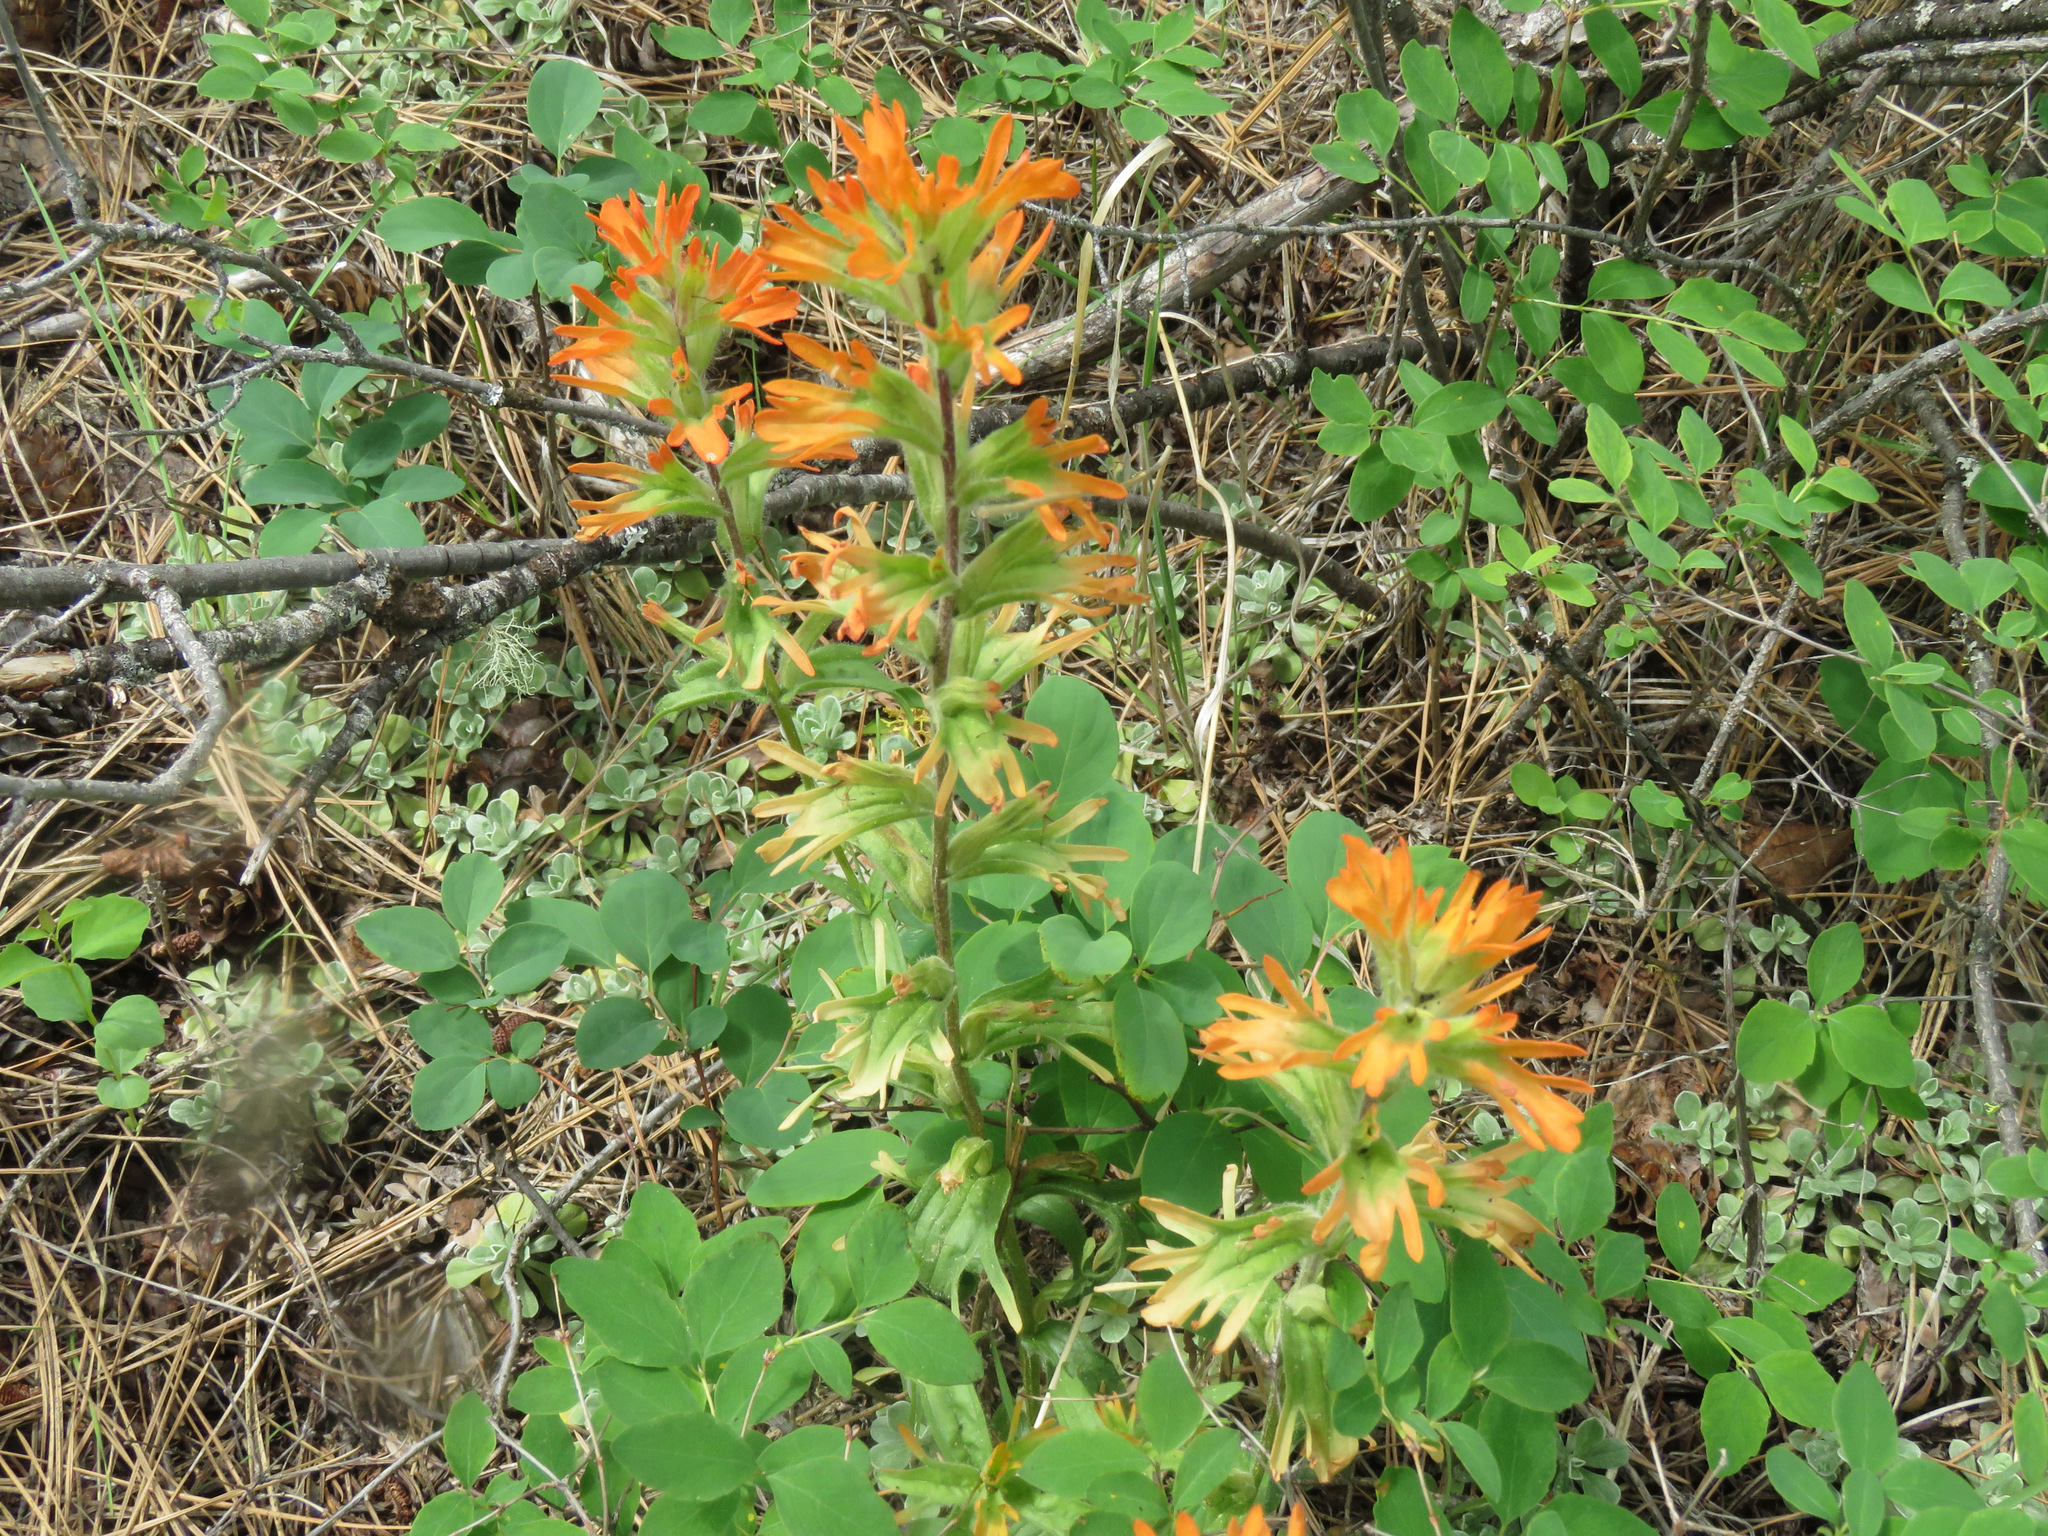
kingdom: Plantae
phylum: Tracheophyta
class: Magnoliopsida
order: Lamiales
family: Orobanchaceae
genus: Castilleja
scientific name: Castilleja hispida
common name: Bristly paintbrush
